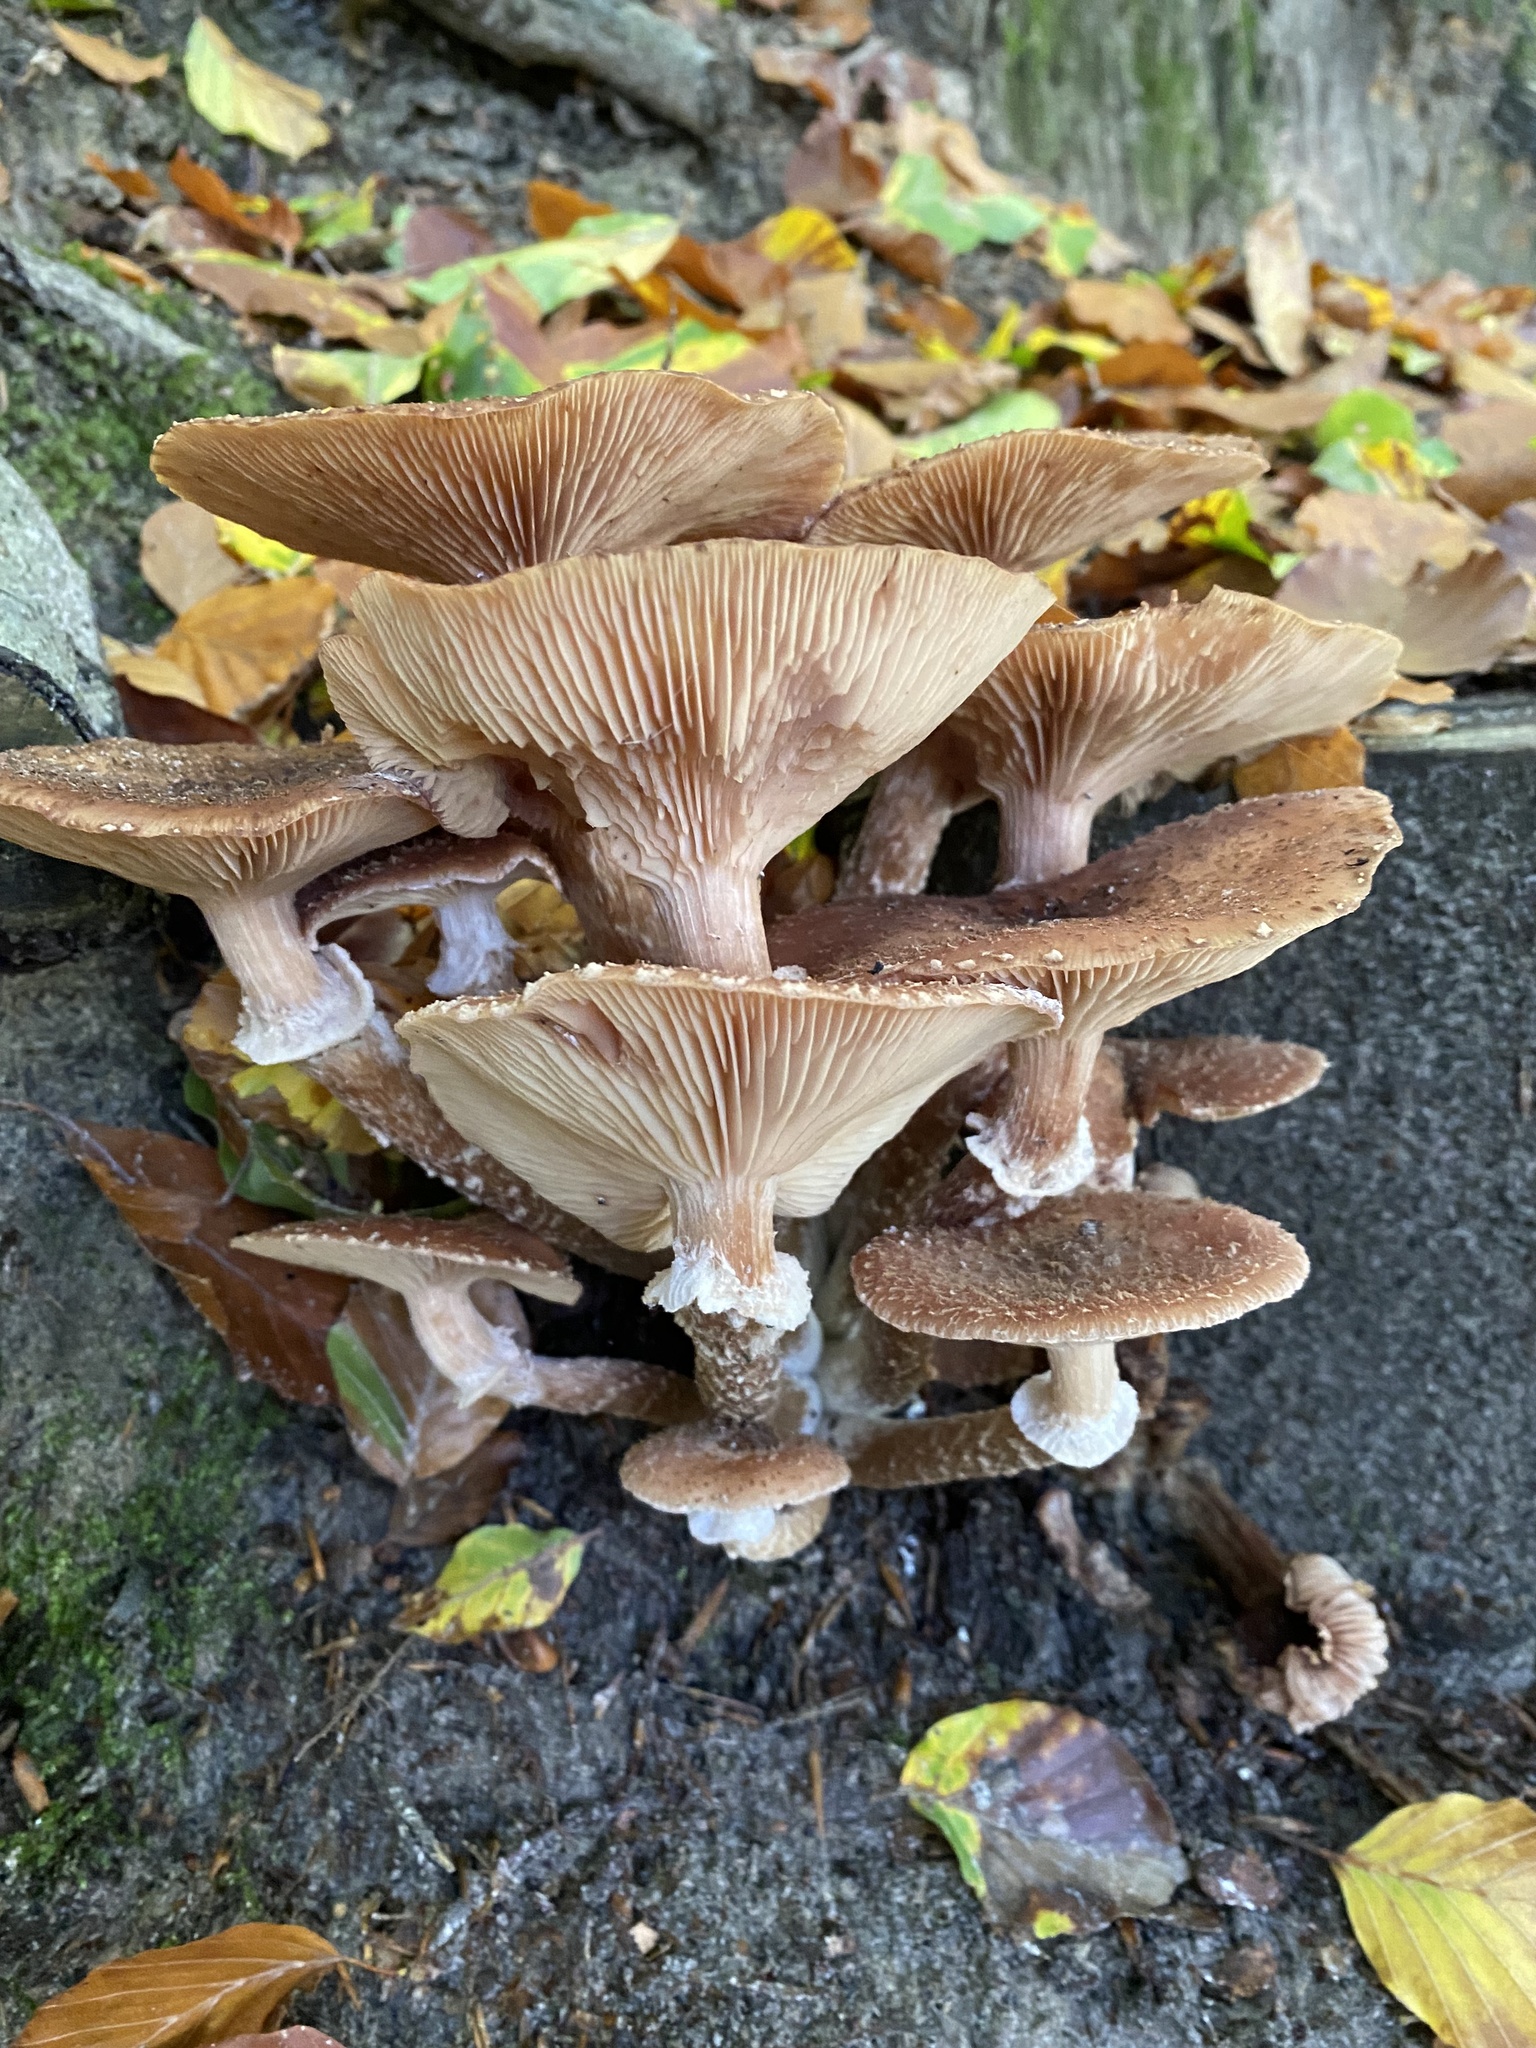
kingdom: Fungi
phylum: Basidiomycota
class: Agaricomycetes
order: Agaricales
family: Physalacriaceae
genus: Armillaria
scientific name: Armillaria ostoyae
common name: Dark honey fungus
